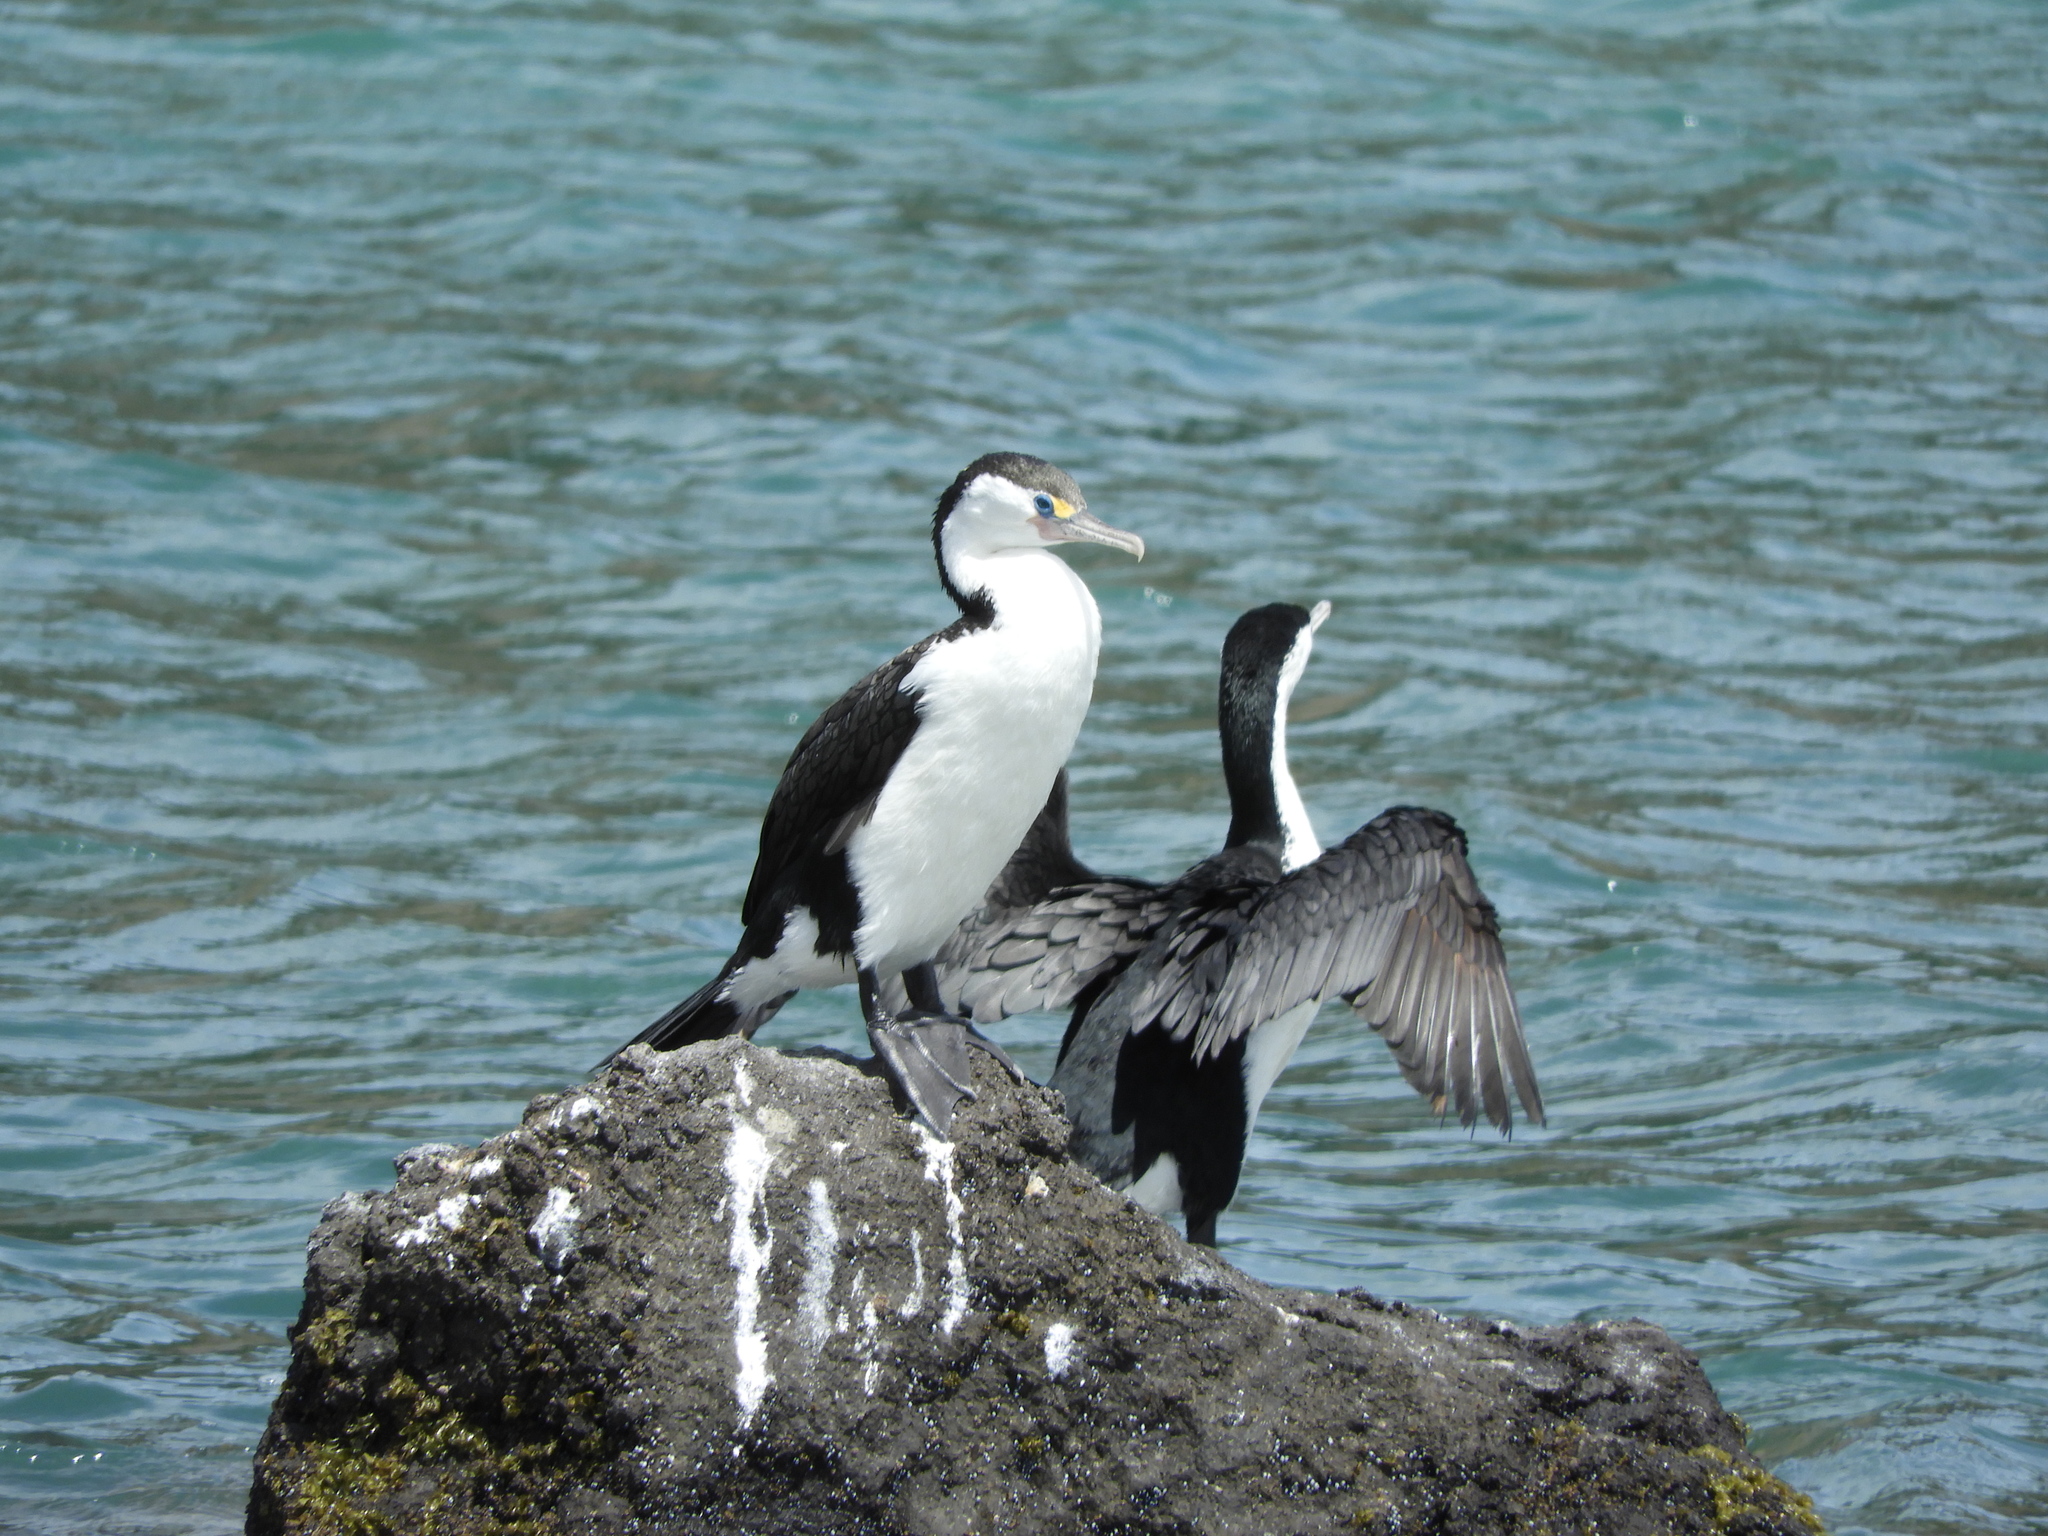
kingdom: Animalia
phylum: Chordata
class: Aves
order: Suliformes
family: Phalacrocoracidae
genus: Phalacrocorax
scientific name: Phalacrocorax varius
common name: Pied cormorant
